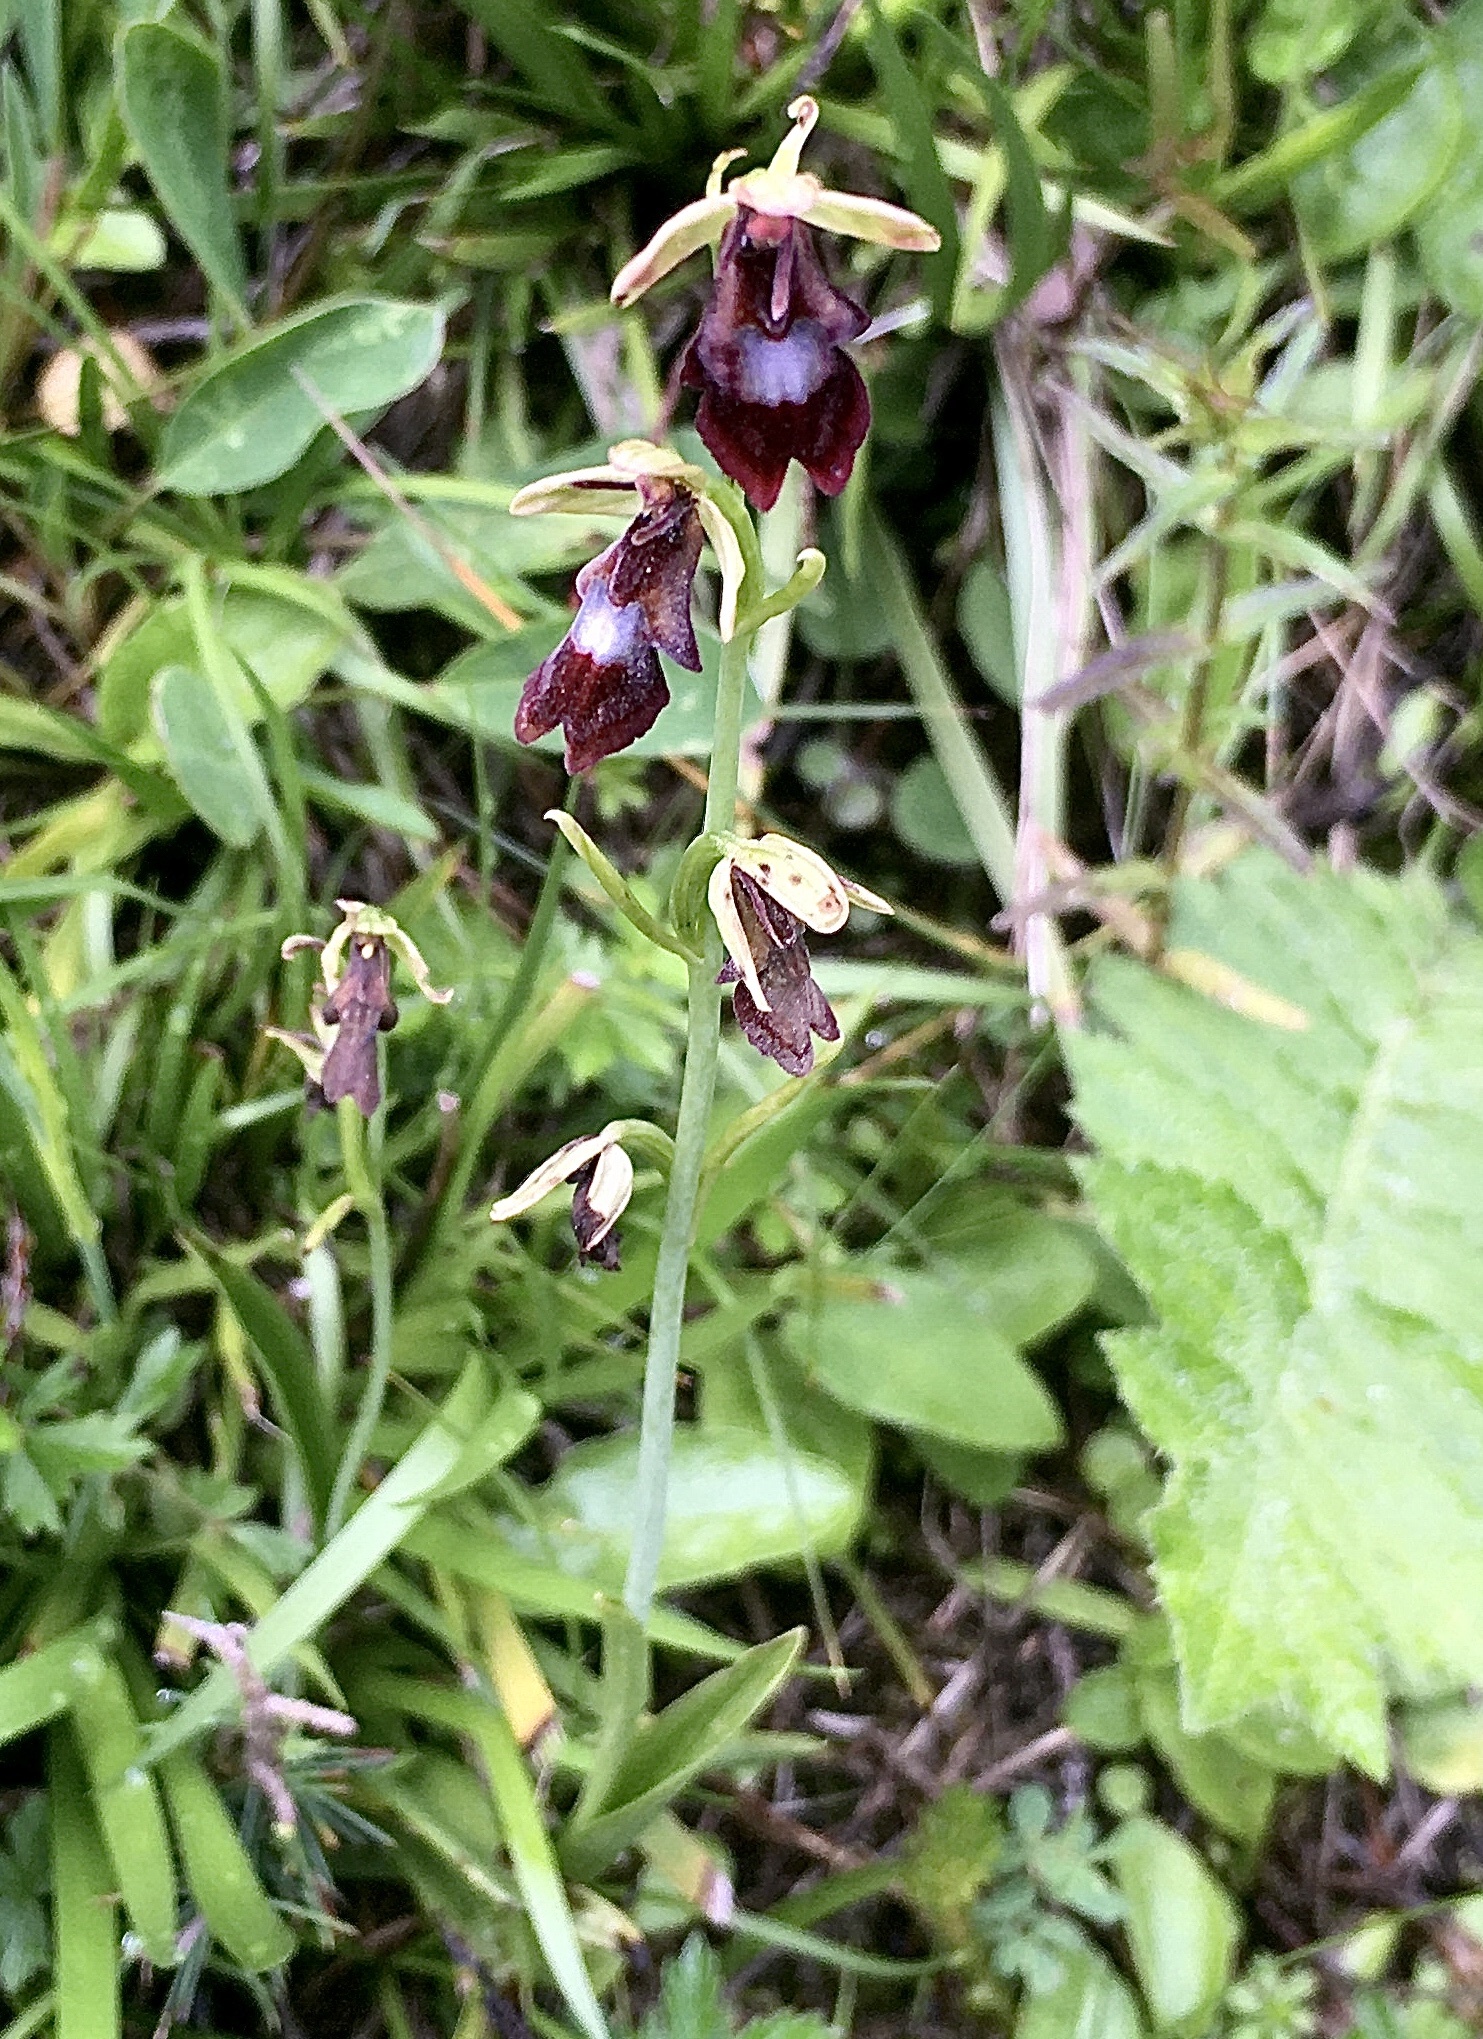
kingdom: Plantae
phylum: Tracheophyta
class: Liliopsida
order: Asparagales
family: Orchidaceae
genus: Ophrys
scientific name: Ophrys insectifera
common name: Fly orchid
